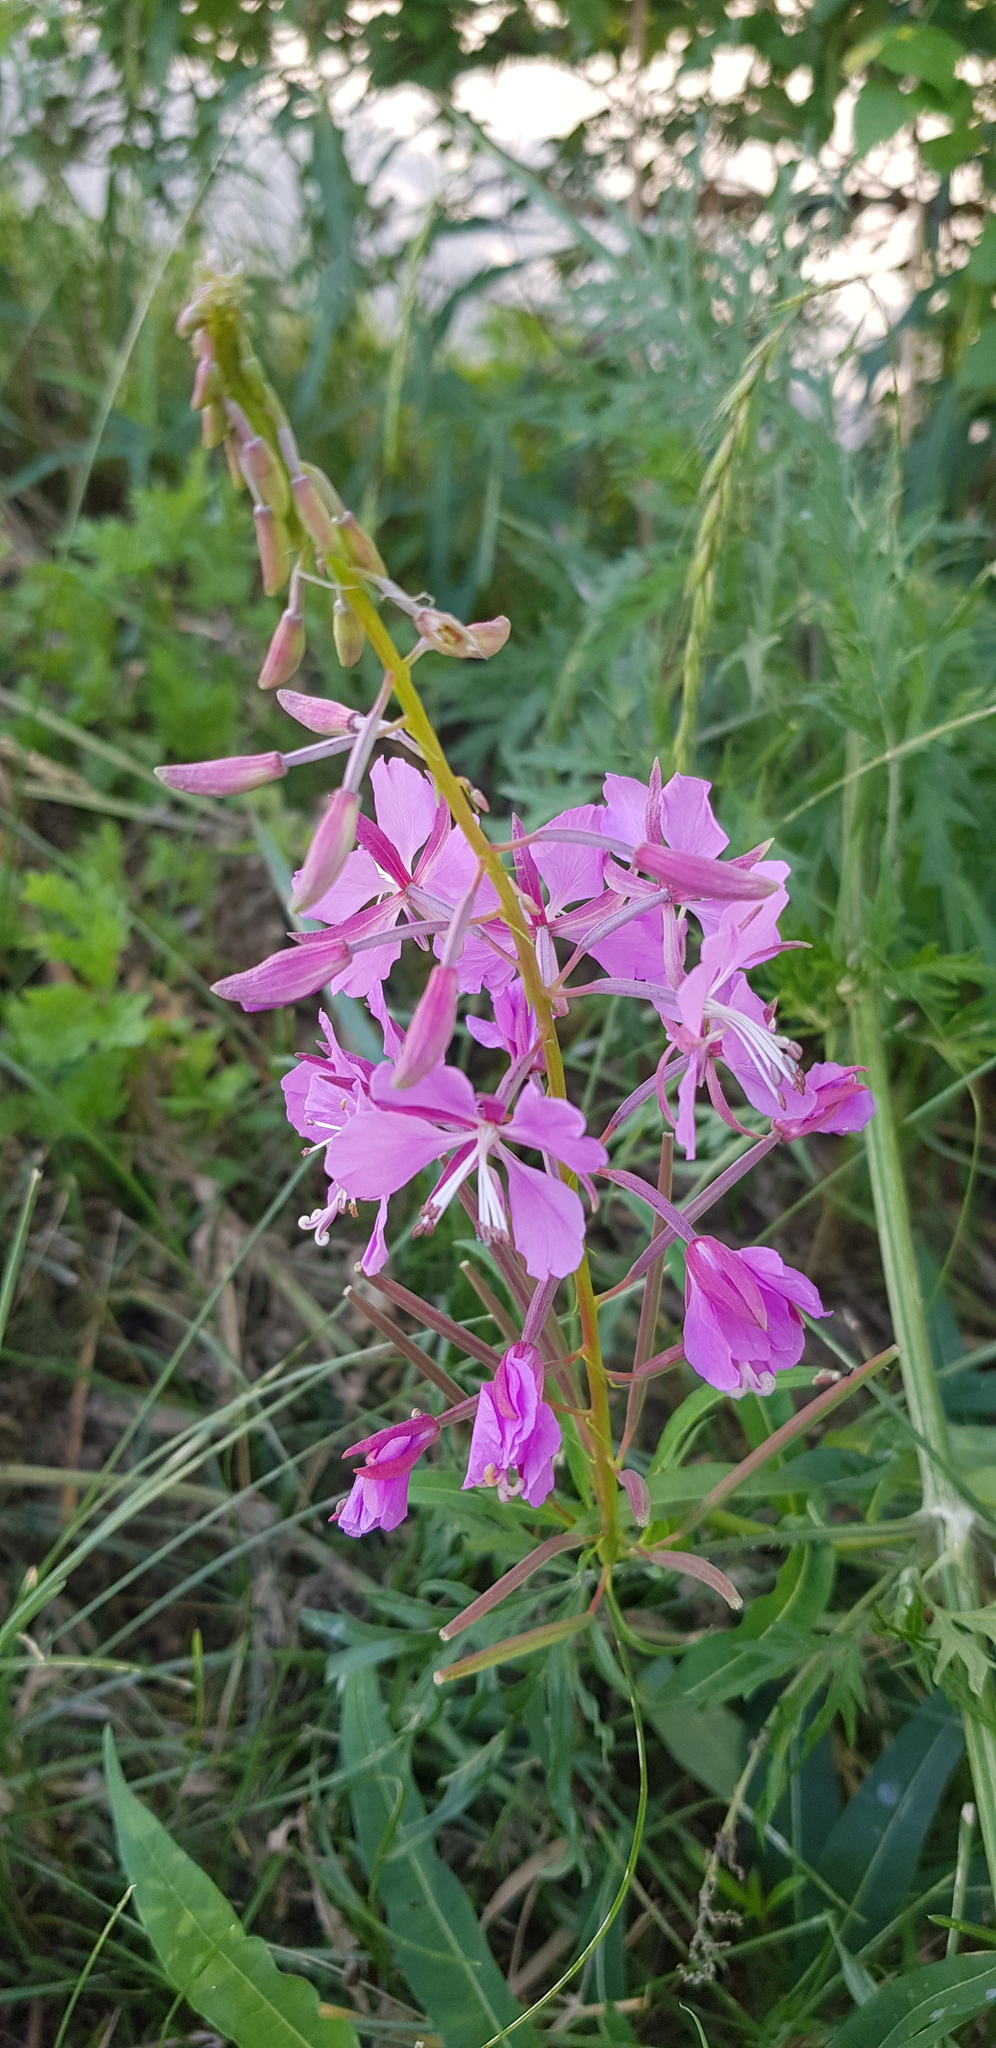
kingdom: Plantae
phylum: Tracheophyta
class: Magnoliopsida
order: Myrtales
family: Onagraceae
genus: Chamaenerion
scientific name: Chamaenerion angustifolium
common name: Fireweed
